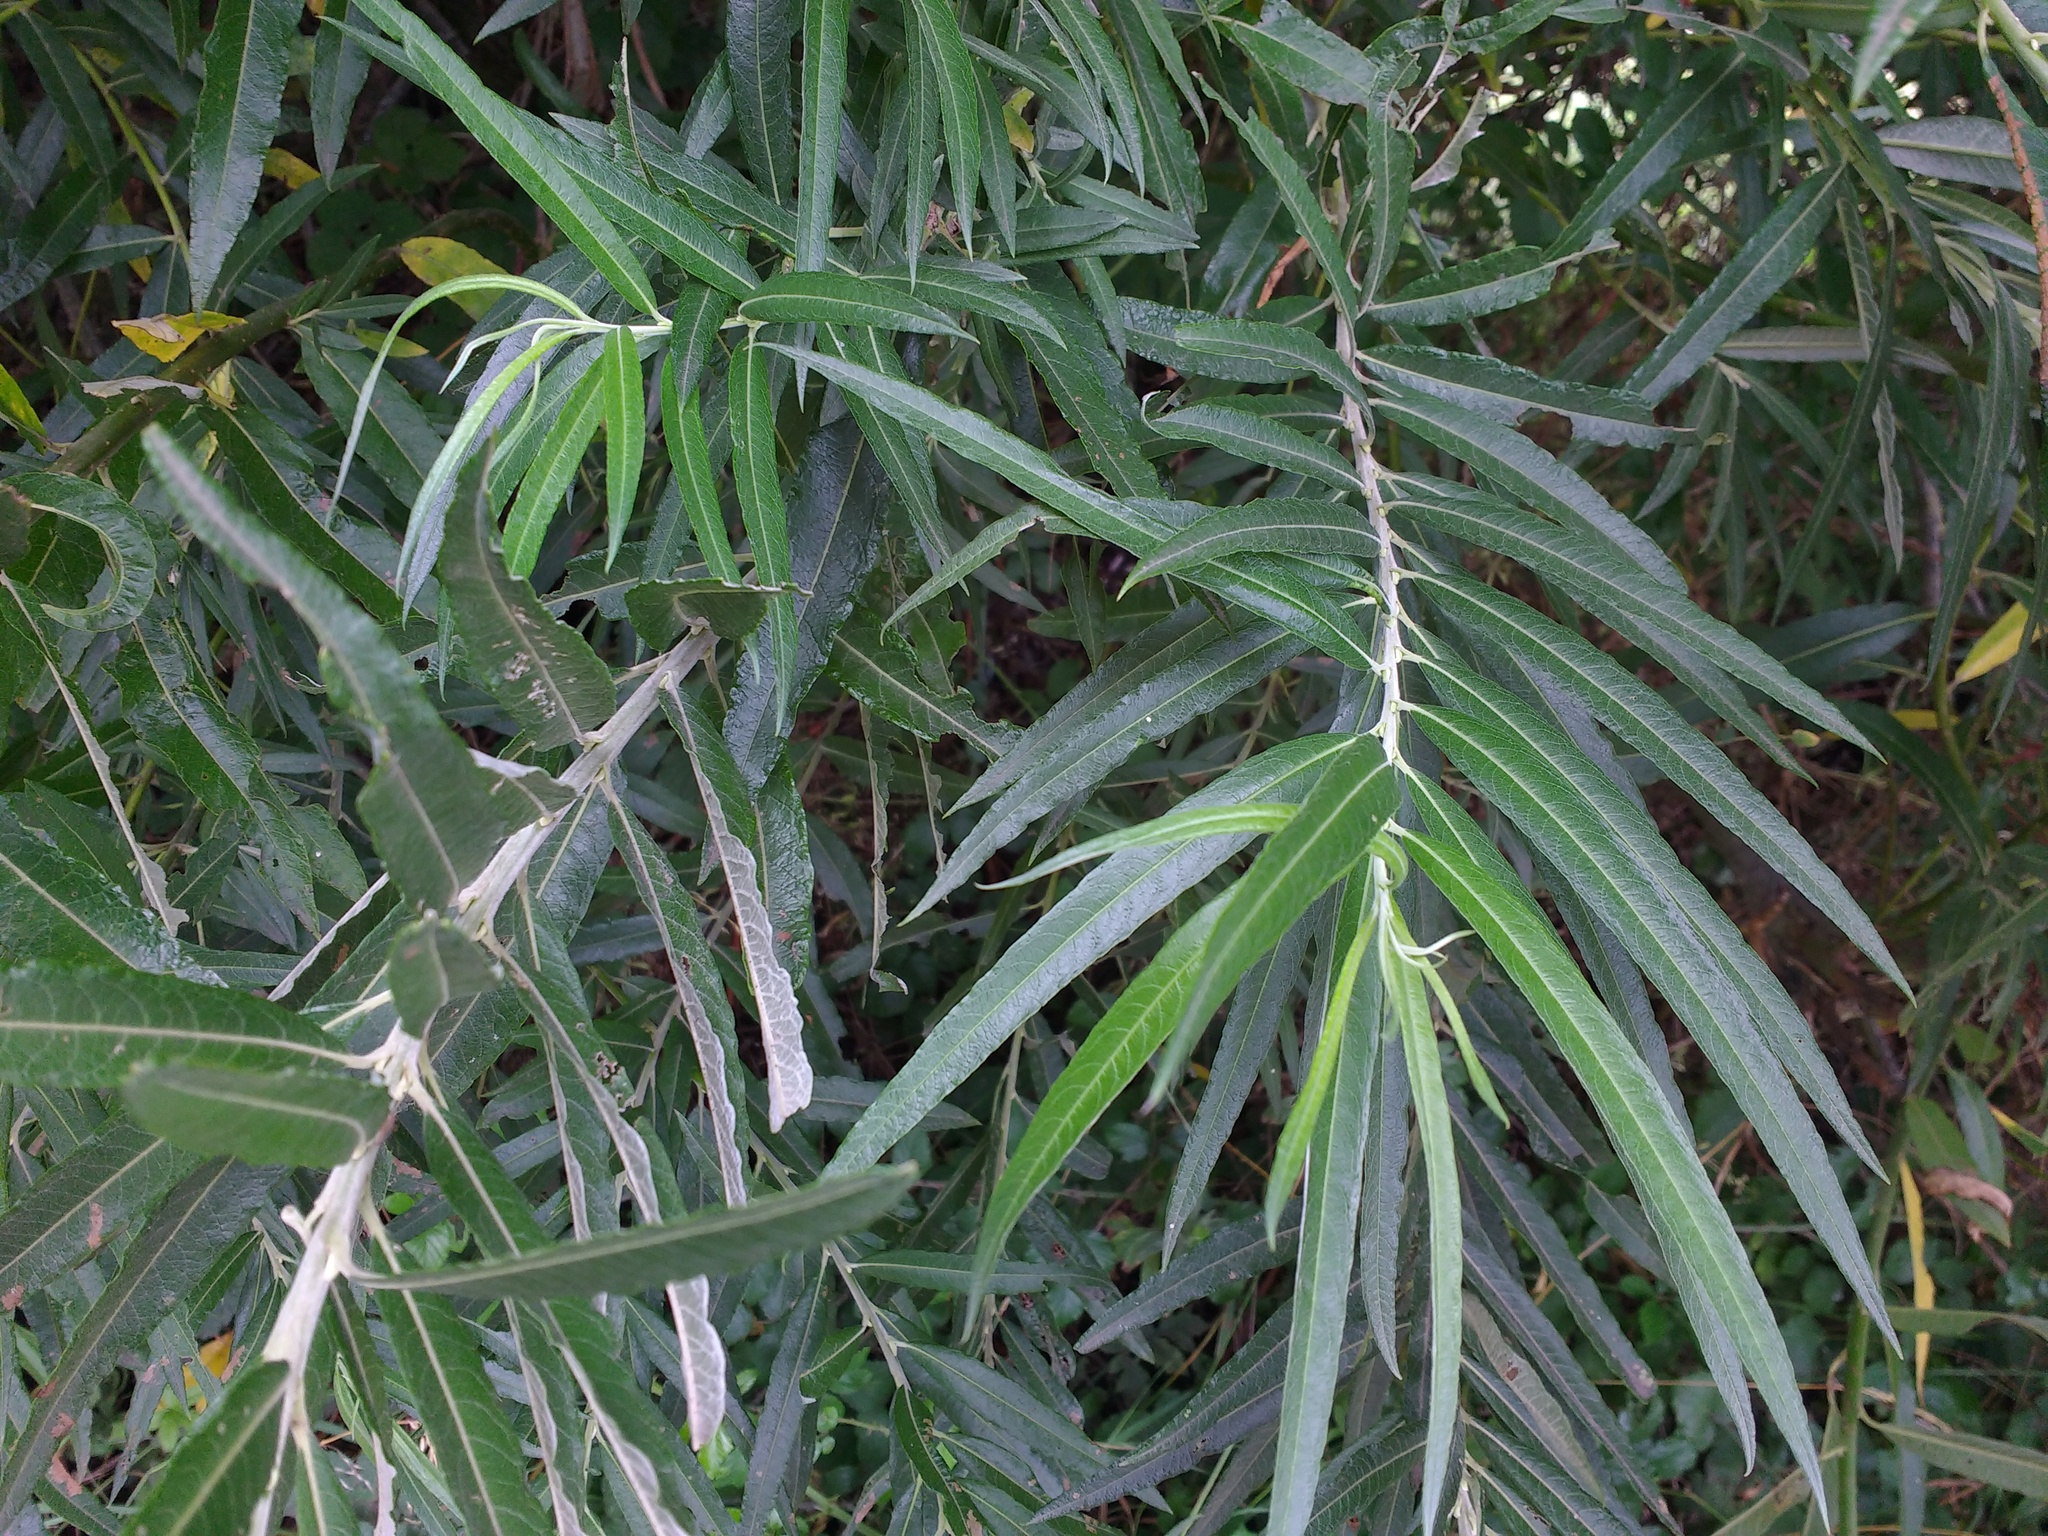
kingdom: Plantae
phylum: Tracheophyta
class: Magnoliopsida
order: Malpighiales
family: Salicaceae
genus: Salix
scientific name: Salix viminalis
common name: Osier
